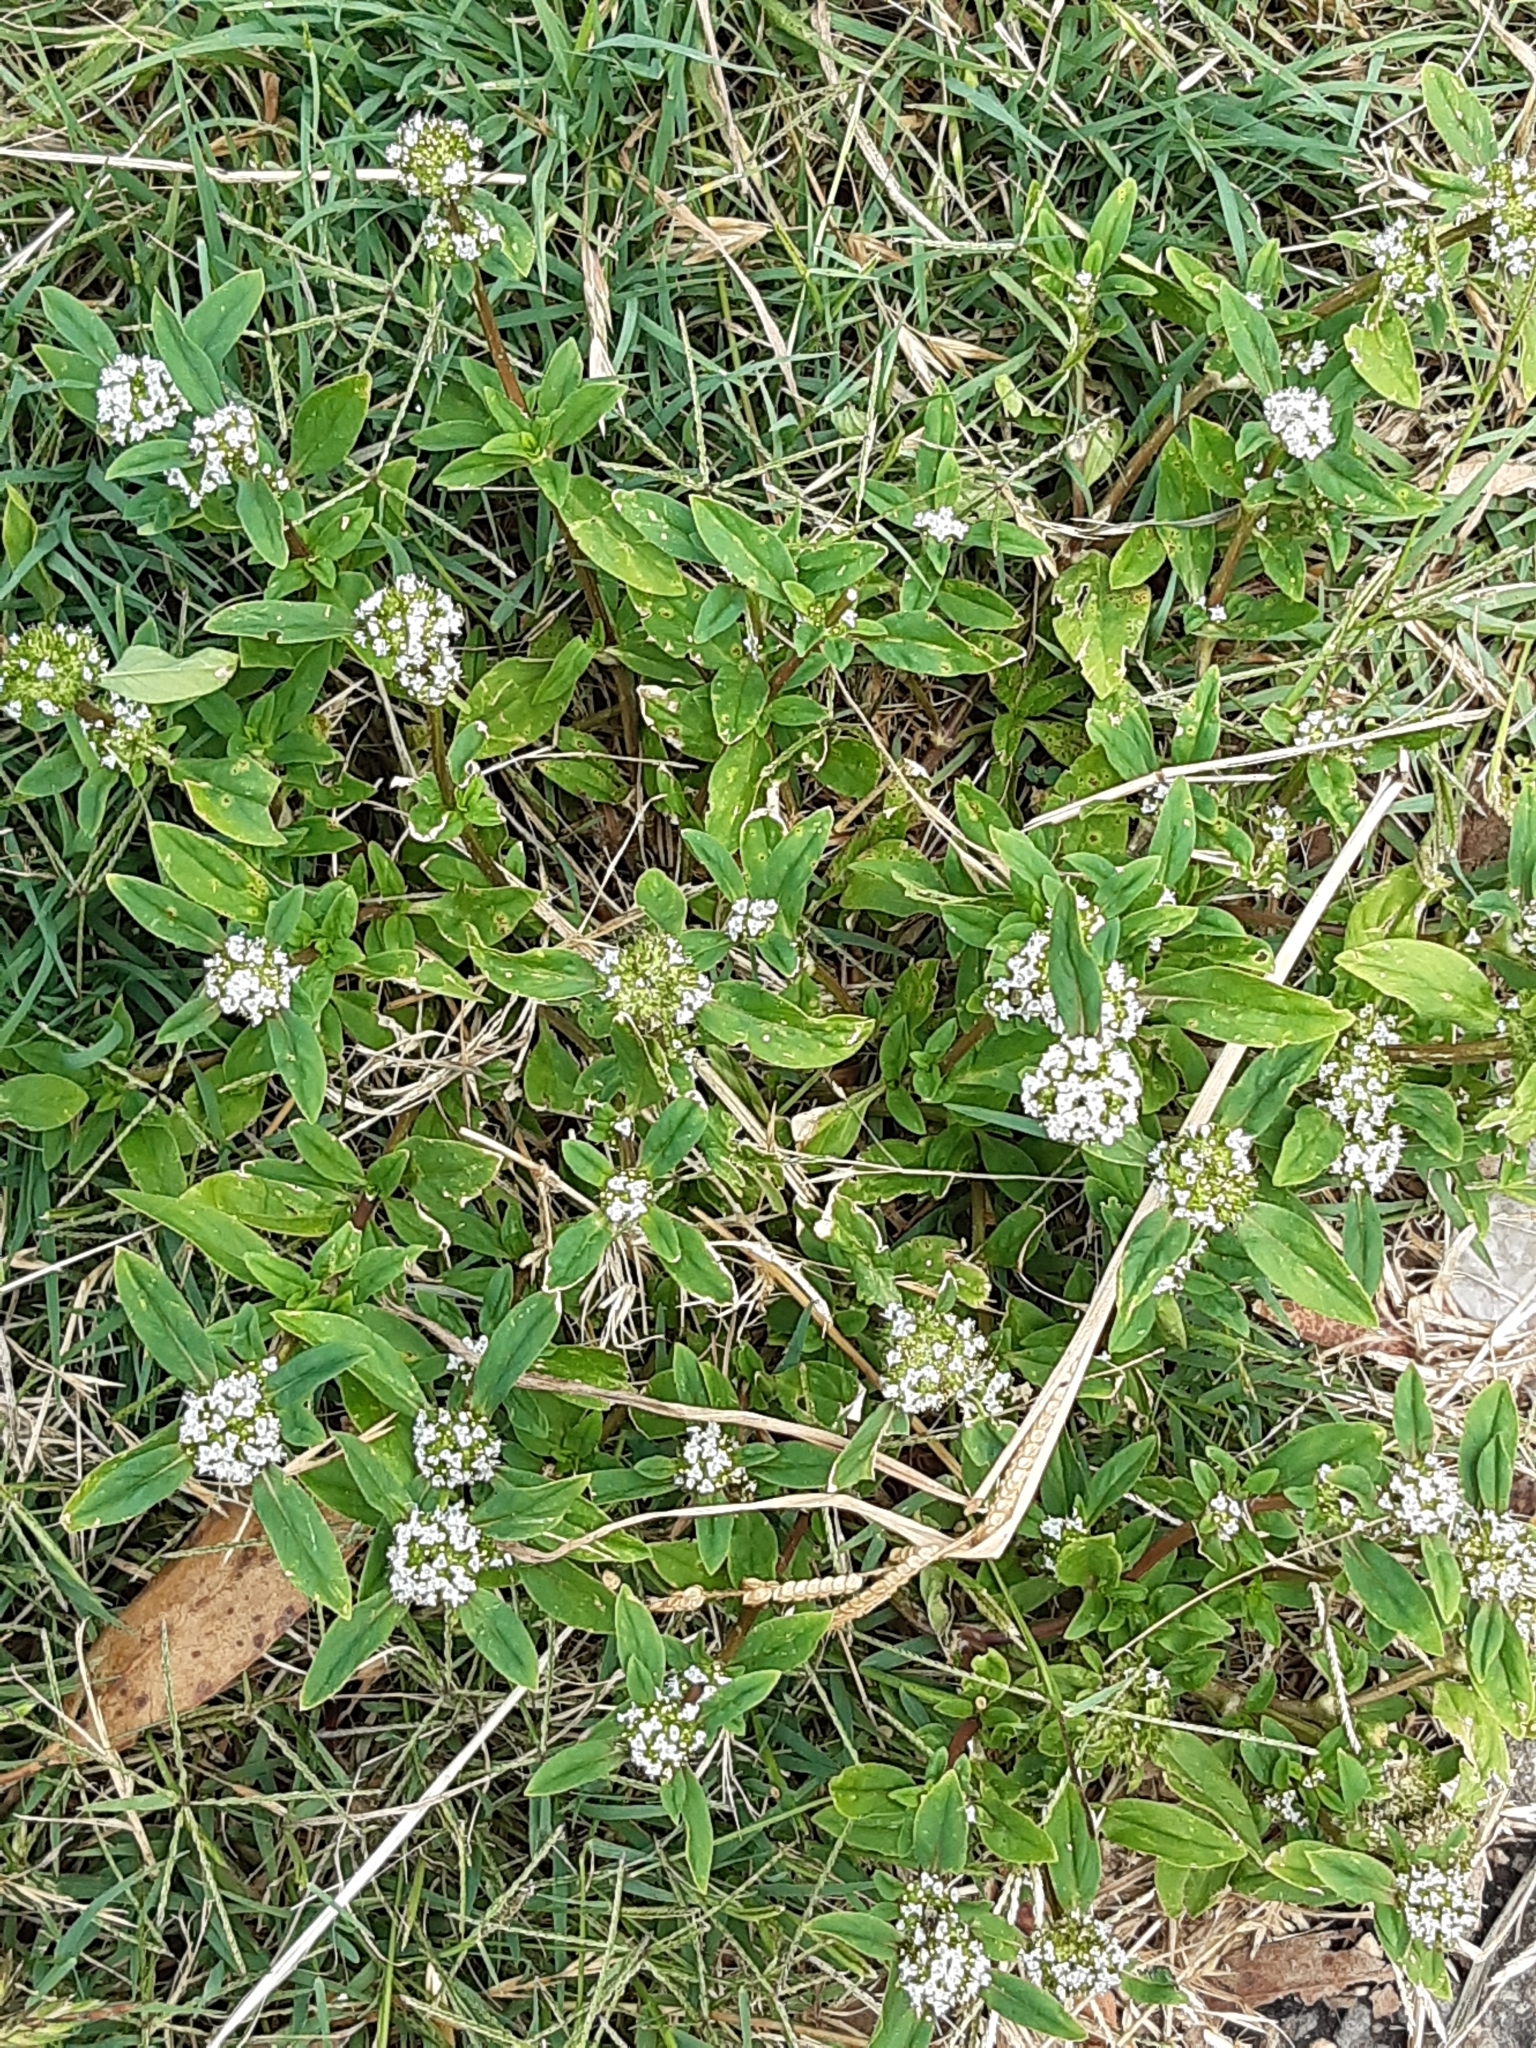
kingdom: Plantae
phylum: Tracheophyta
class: Magnoliopsida
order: Gentianales
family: Rubiaceae
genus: Spermacoce
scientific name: Spermacoce dasycephala
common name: False buttonweed
